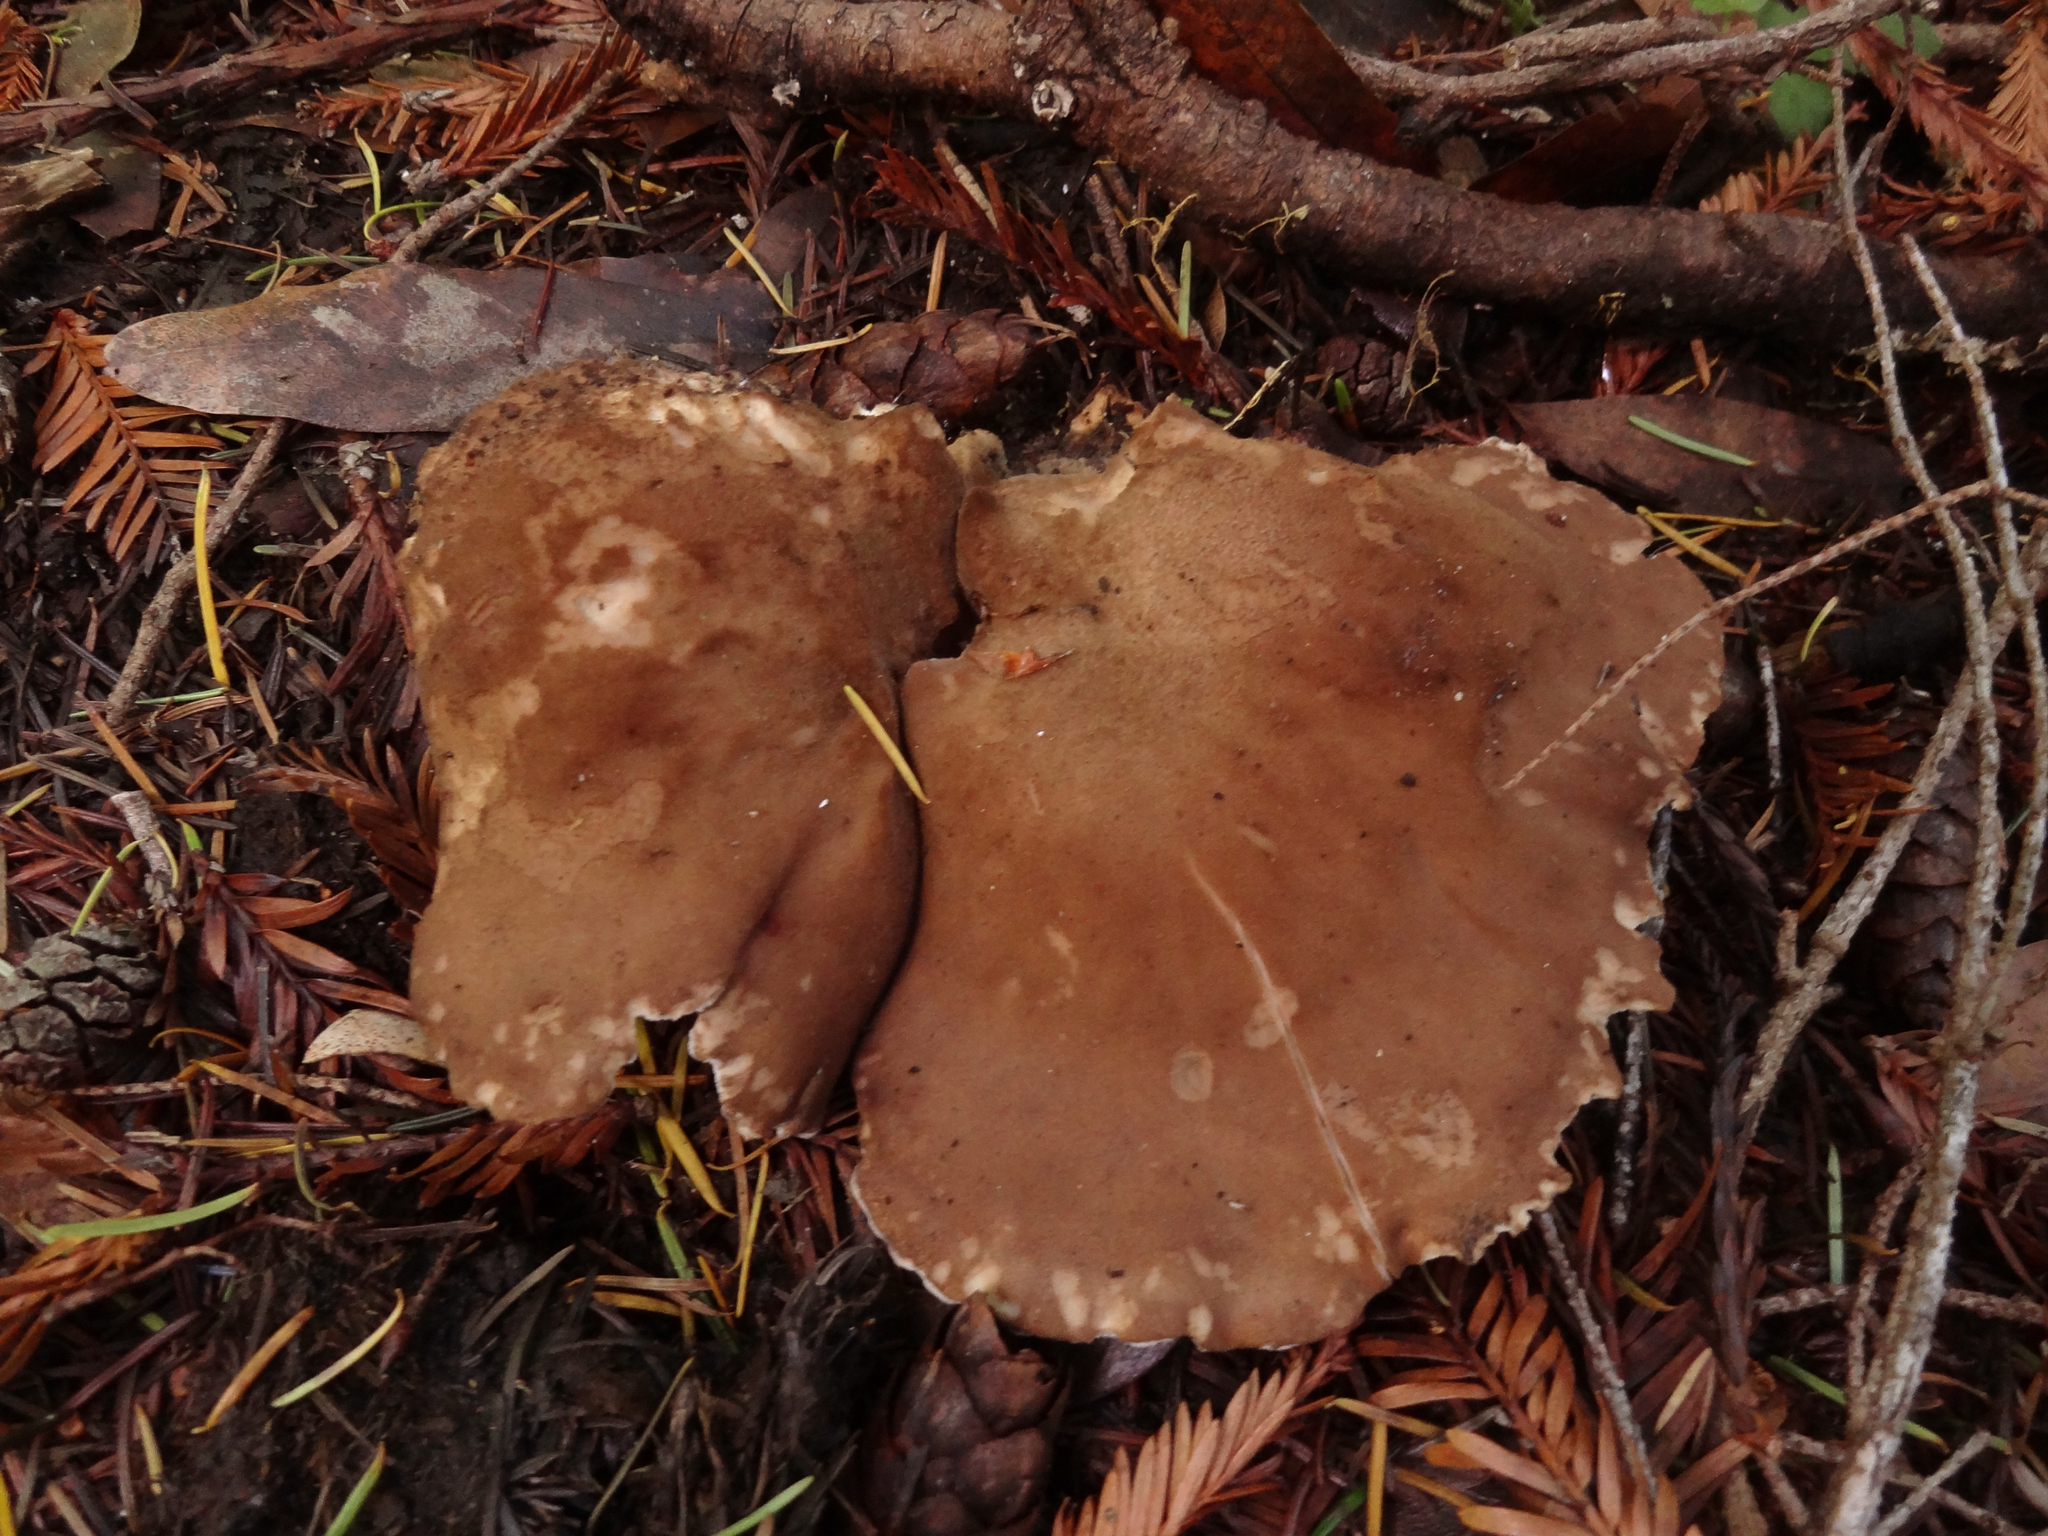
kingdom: Fungi
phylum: Basidiomycota
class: Agaricomycetes
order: Polyporales
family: Dacryobolaceae
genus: Jahnoporus
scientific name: Jahnoporus hirtus
